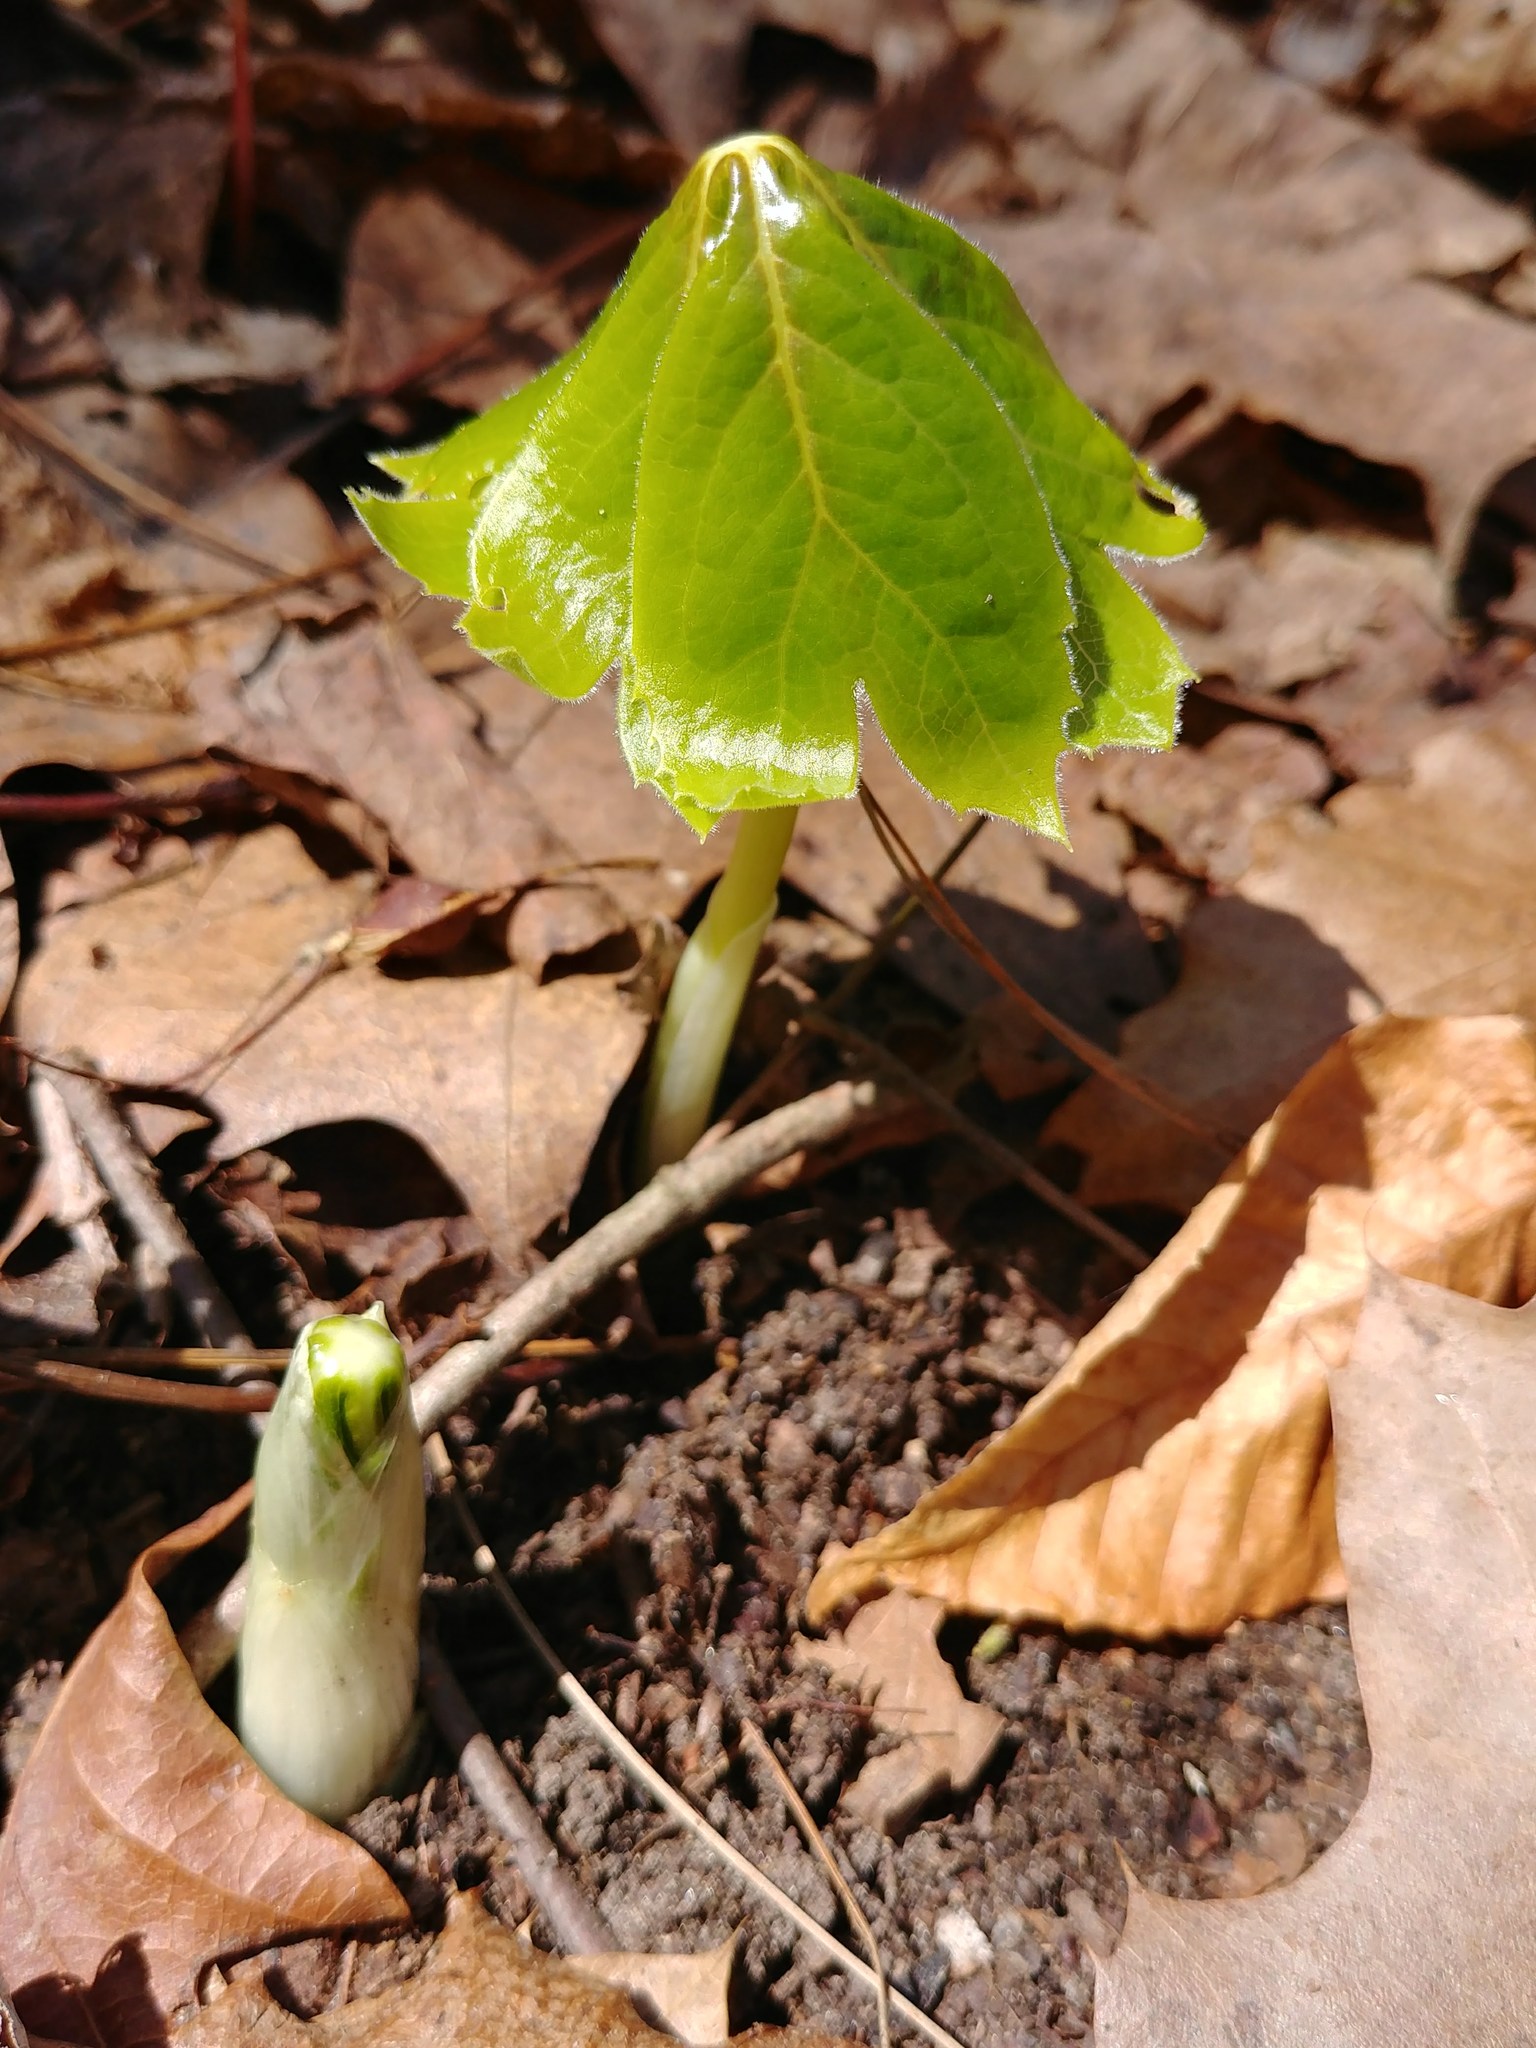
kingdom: Plantae
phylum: Tracheophyta
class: Magnoliopsida
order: Ranunculales
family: Berberidaceae
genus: Podophyllum
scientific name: Podophyllum peltatum
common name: Wild mandrake
